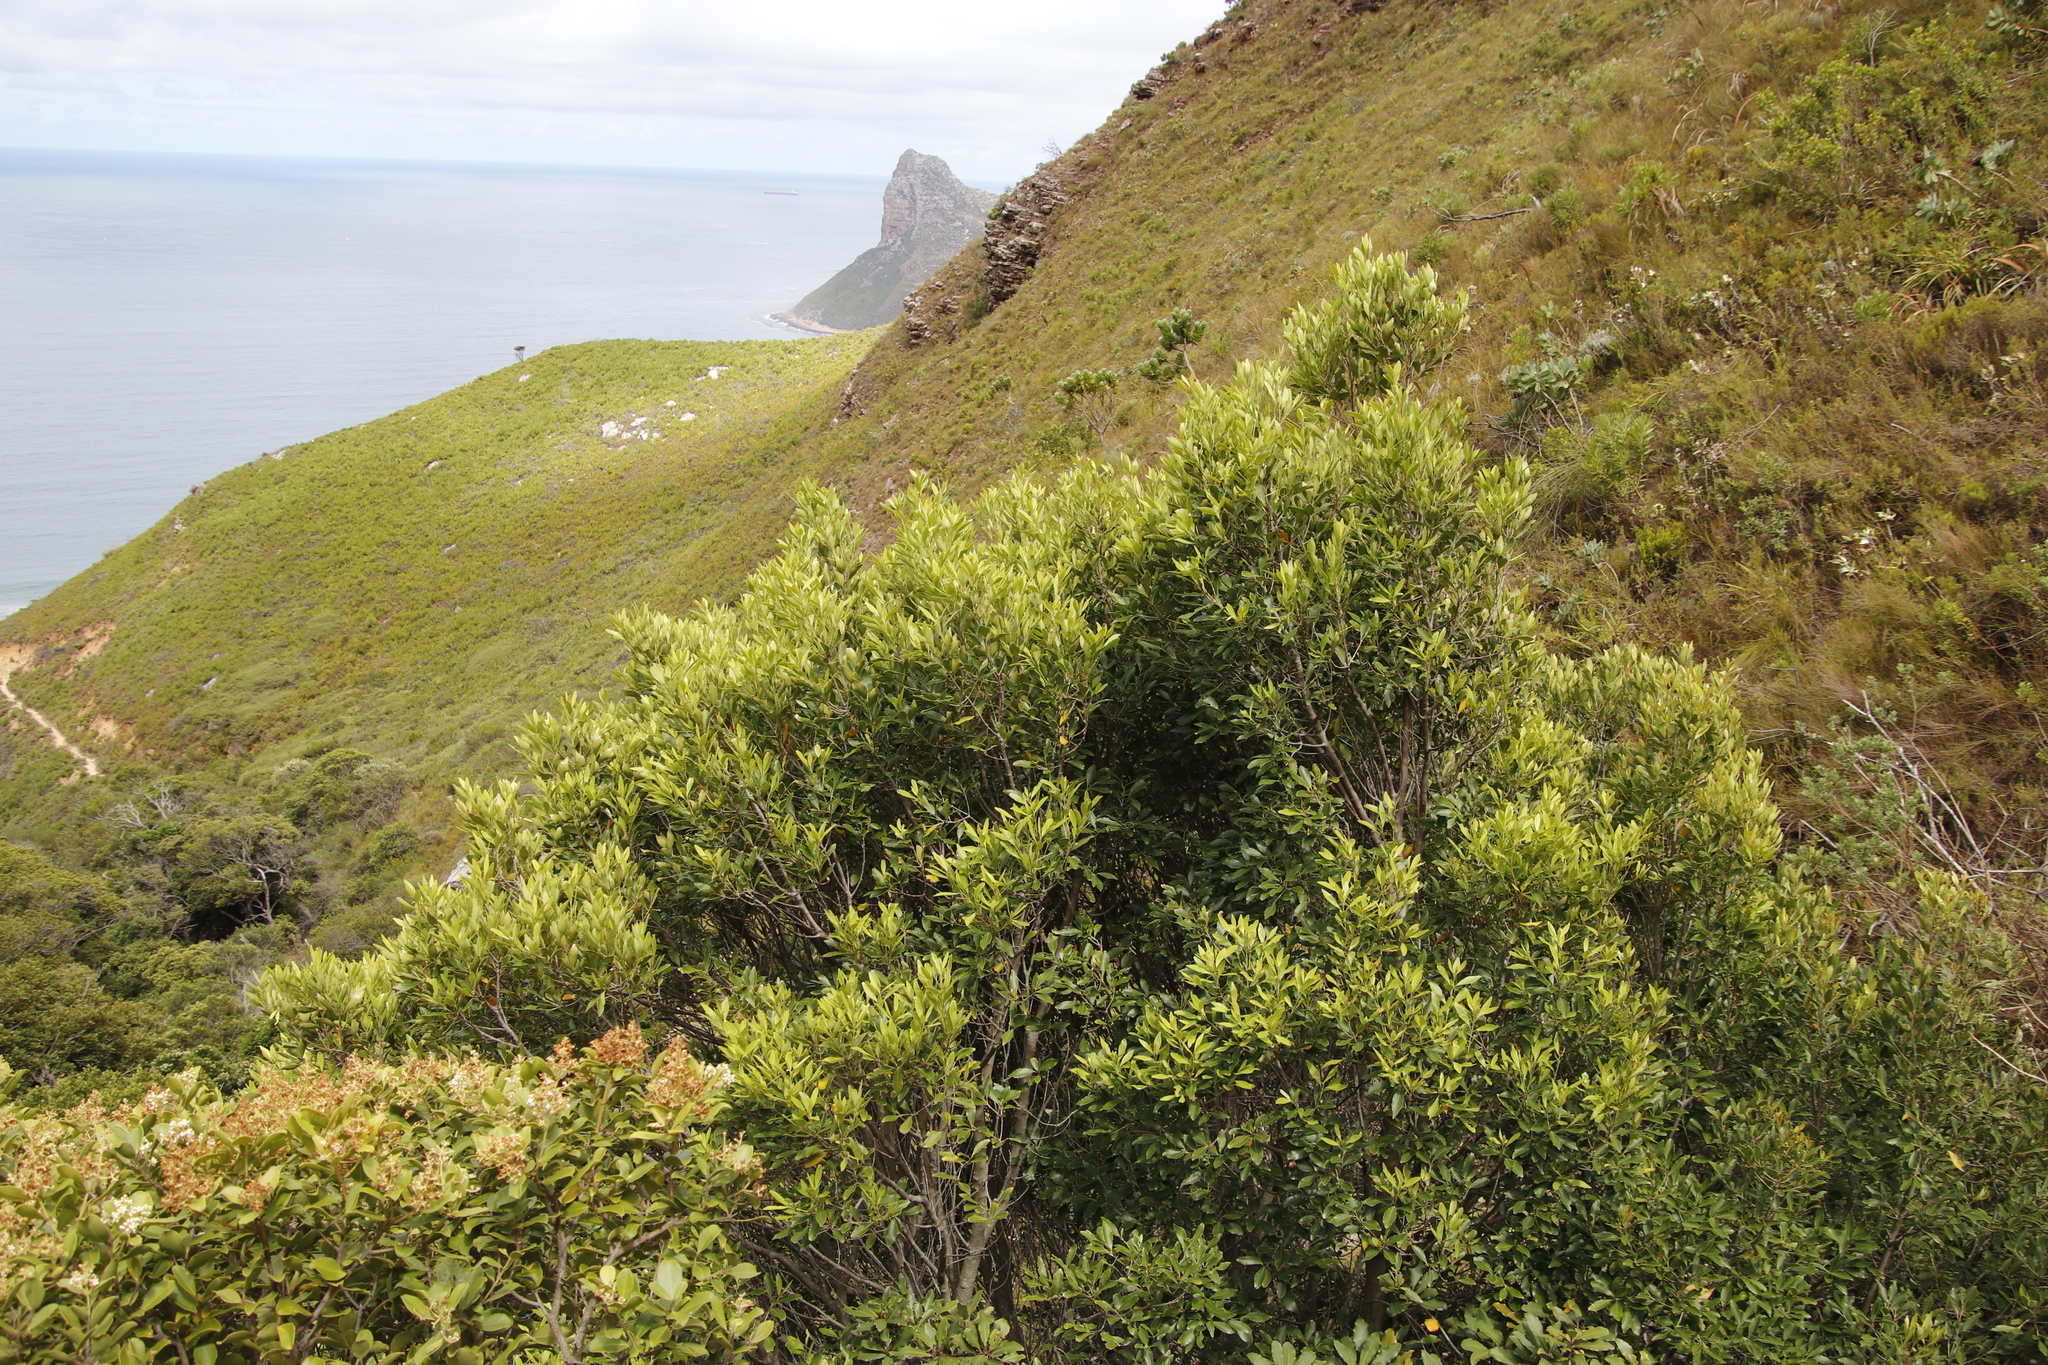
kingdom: Plantae
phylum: Tracheophyta
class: Magnoliopsida
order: Celastrales
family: Celastraceae
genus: Elaeodendron
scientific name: Elaeodendron schinoides
